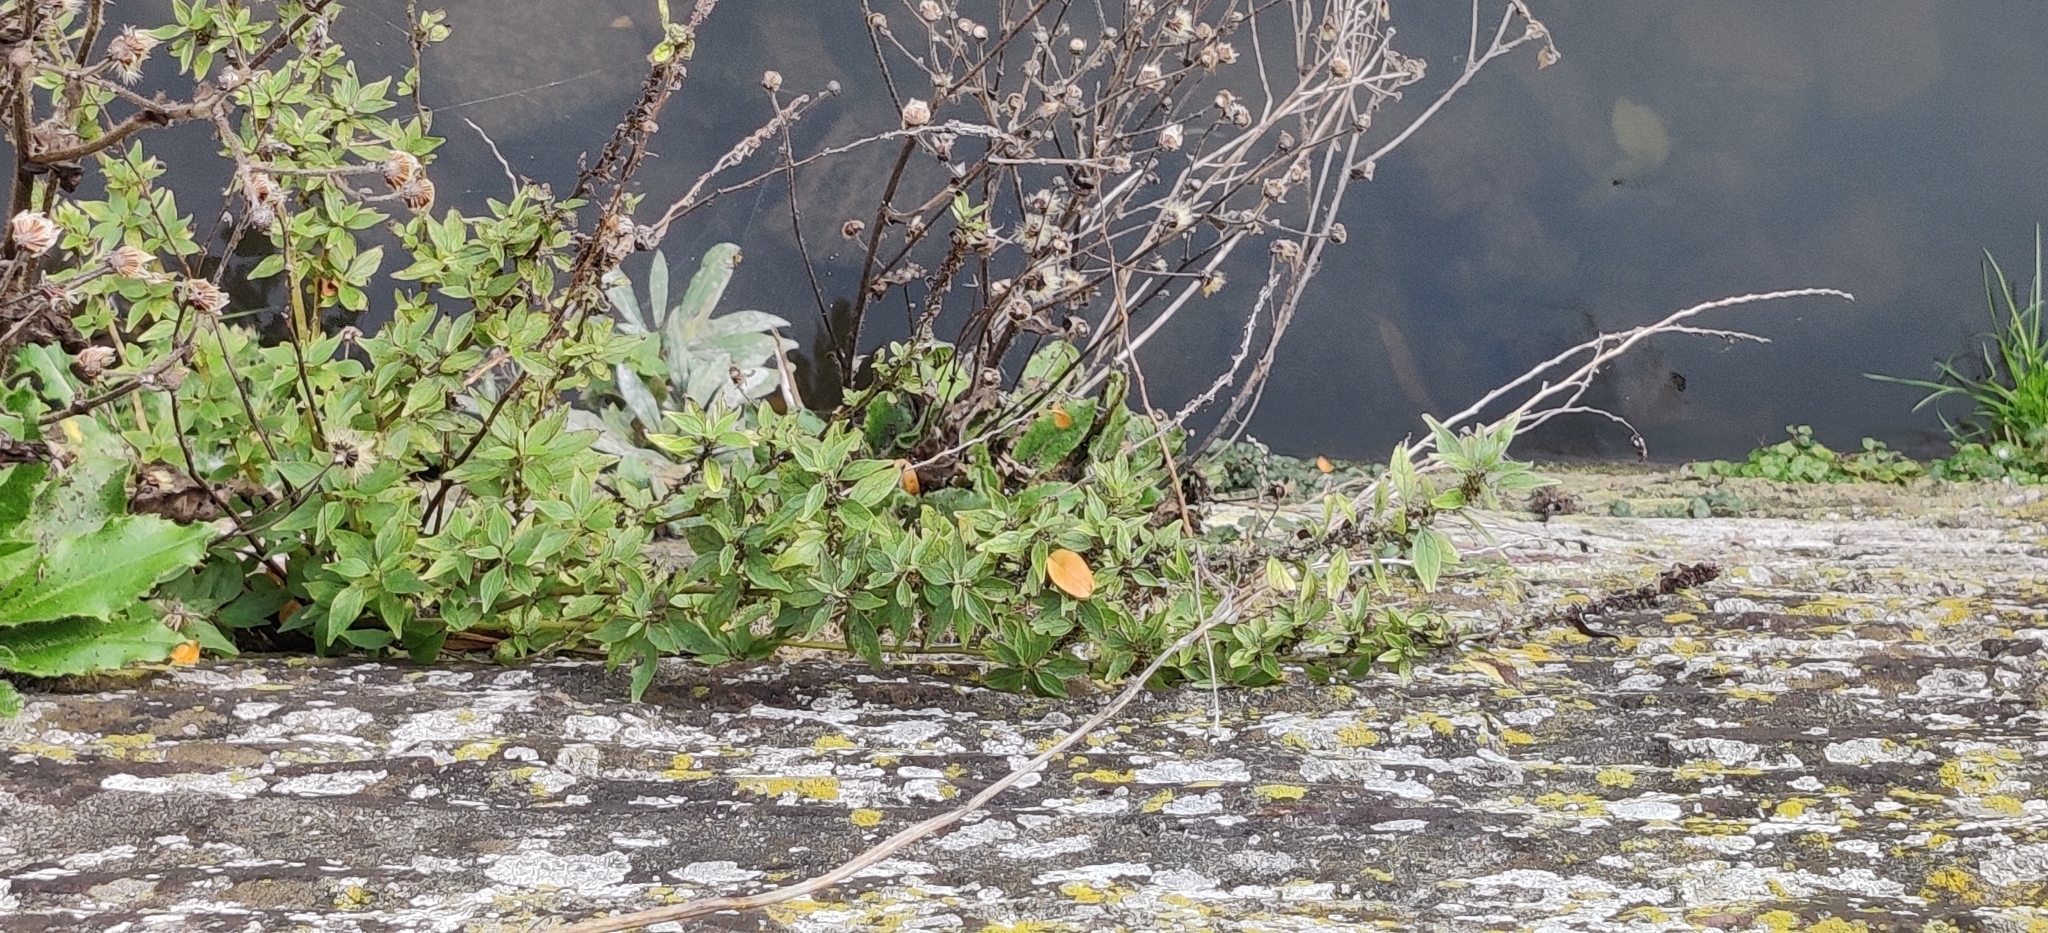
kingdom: Plantae
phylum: Tracheophyta
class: Magnoliopsida
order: Rosales
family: Urticaceae
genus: Parietaria
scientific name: Parietaria judaica
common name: Pellitory-of-the-wall
